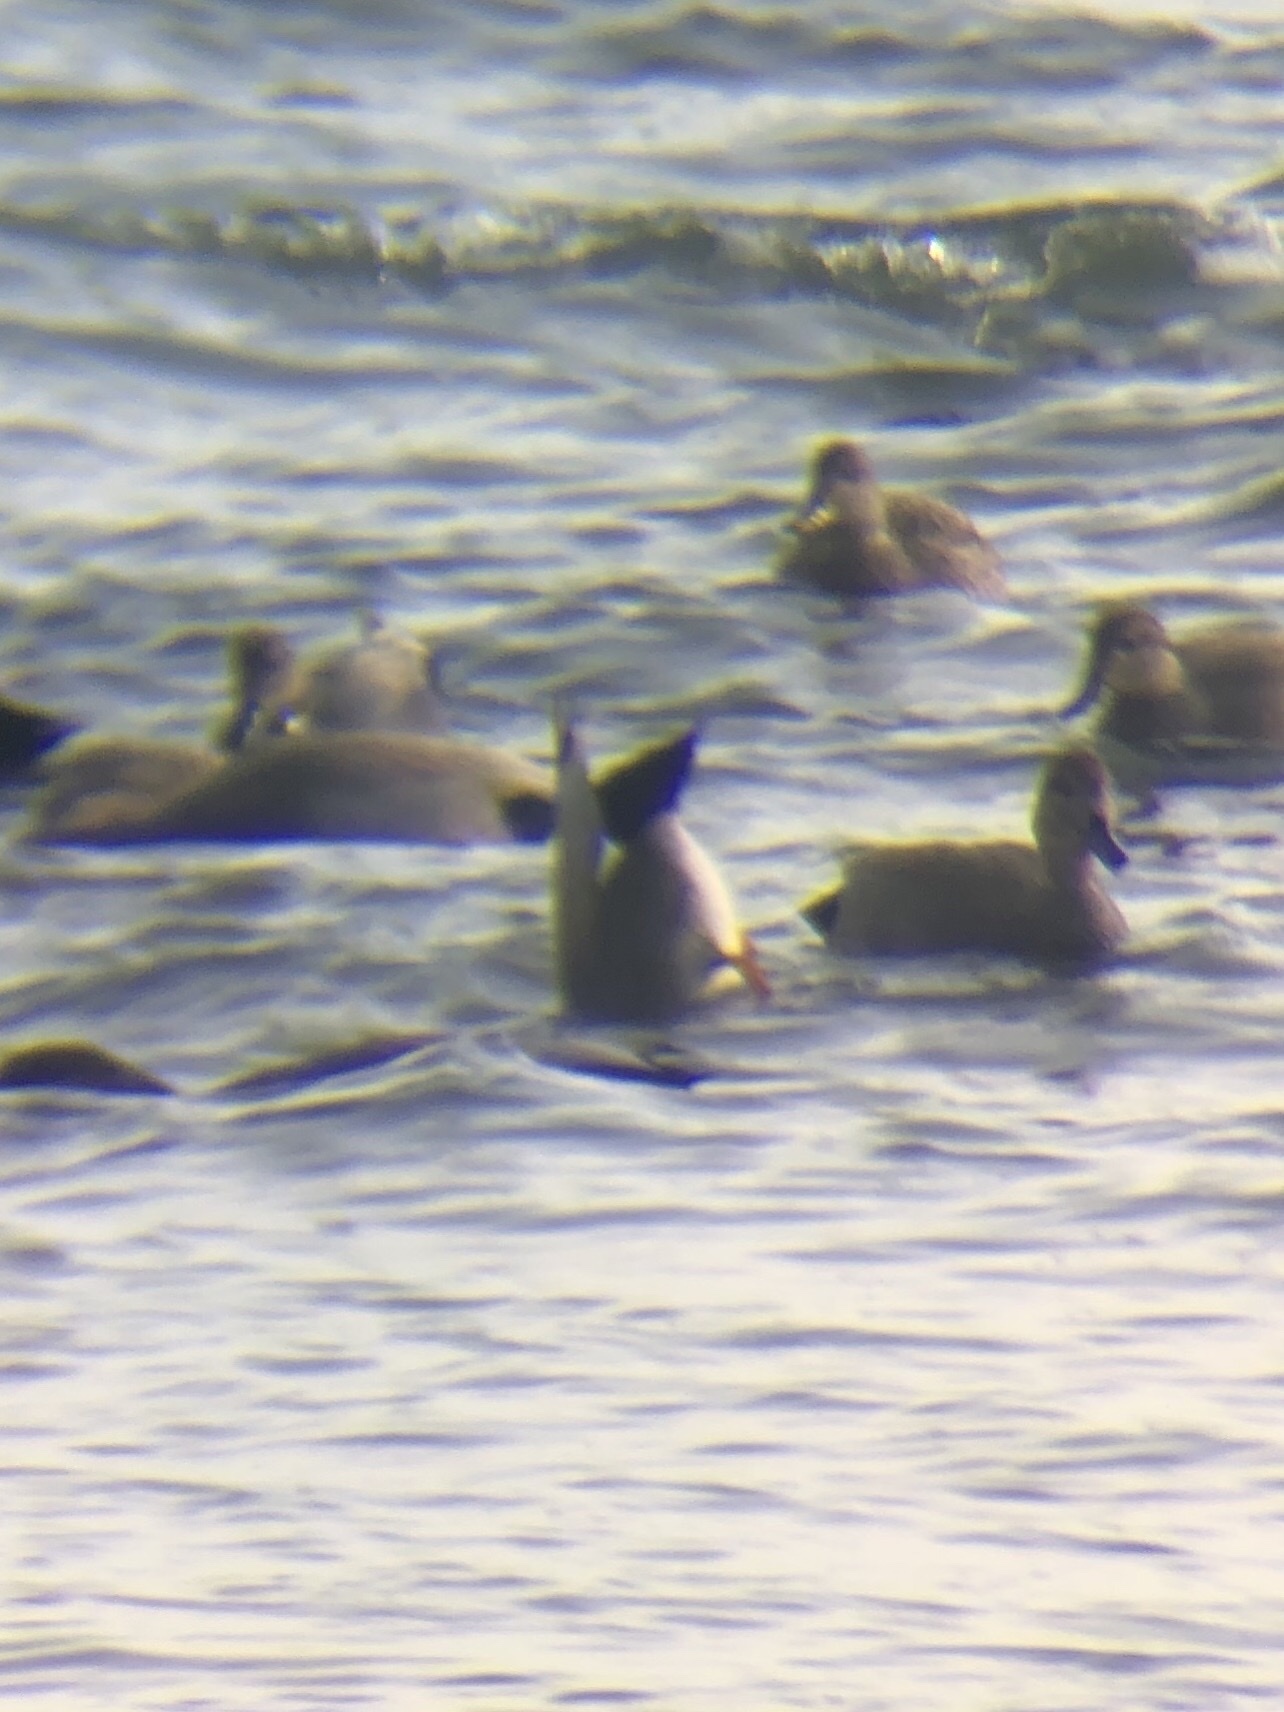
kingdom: Animalia
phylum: Chordata
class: Aves
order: Anseriformes
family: Anatidae
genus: Mareca
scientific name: Mareca strepera
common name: Gadwall
